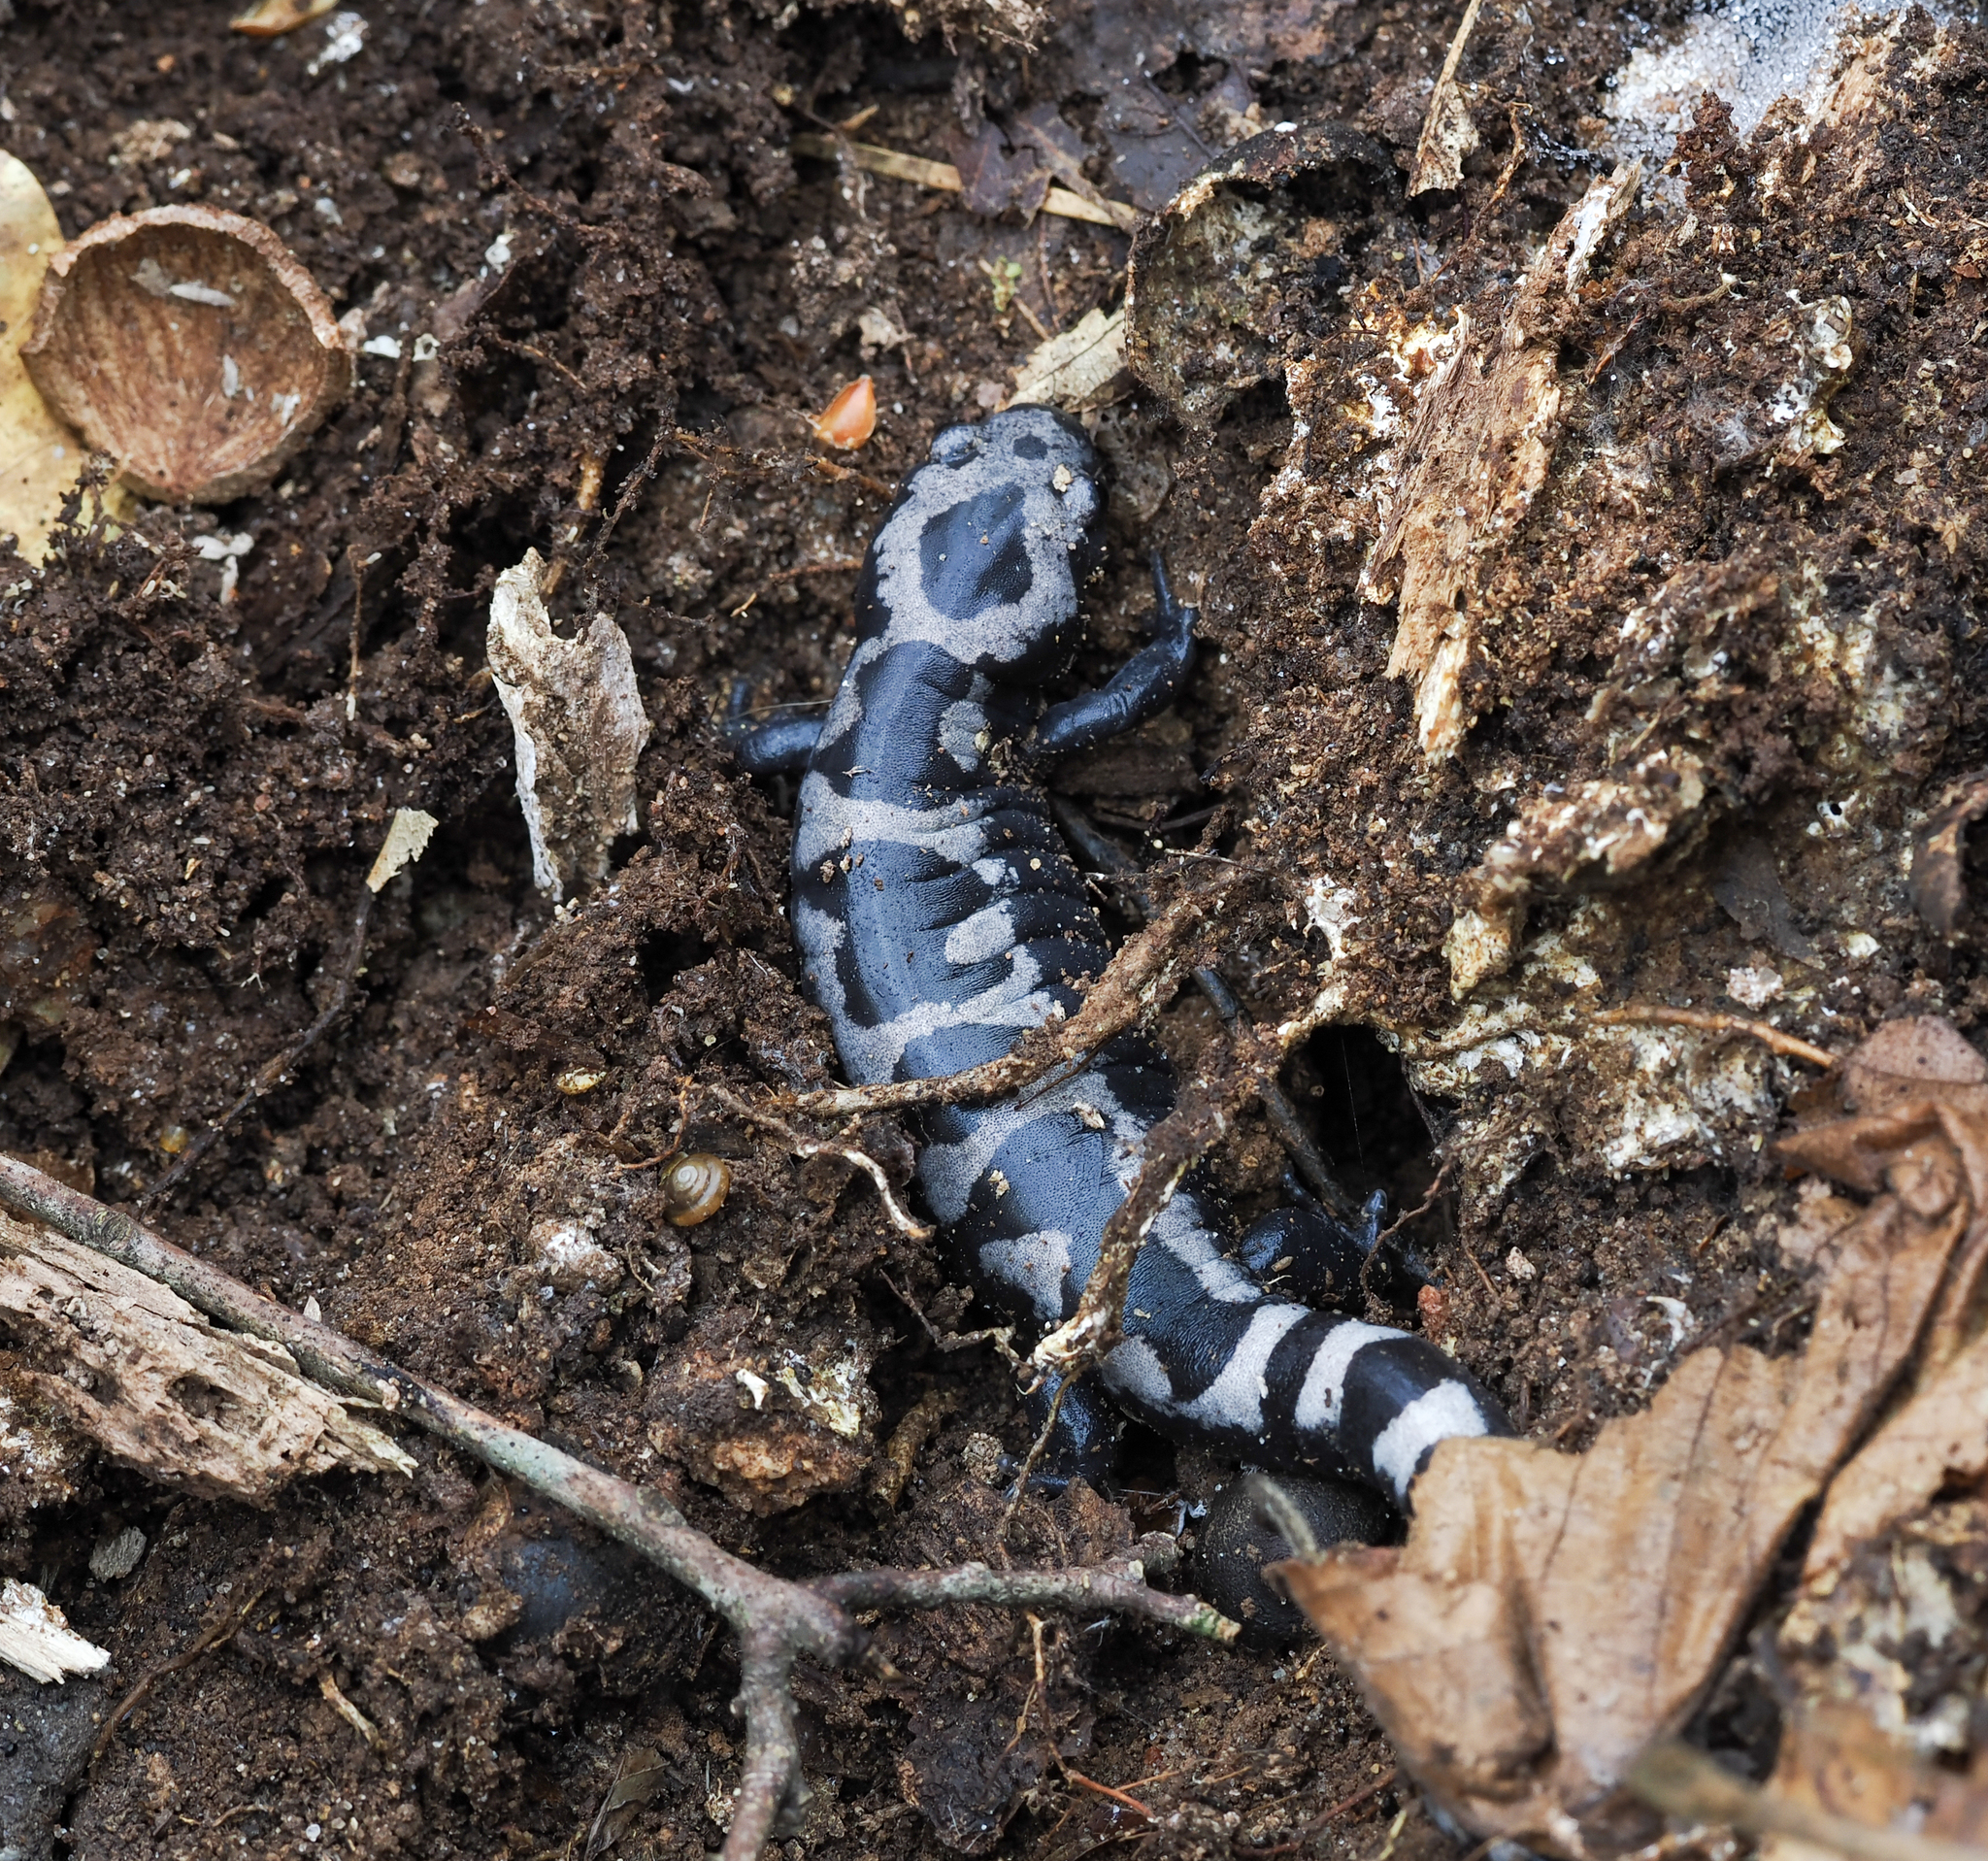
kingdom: Animalia
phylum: Chordata
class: Amphibia
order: Caudata
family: Ambystomatidae
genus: Ambystoma
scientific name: Ambystoma opacum
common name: Marbled salamander
